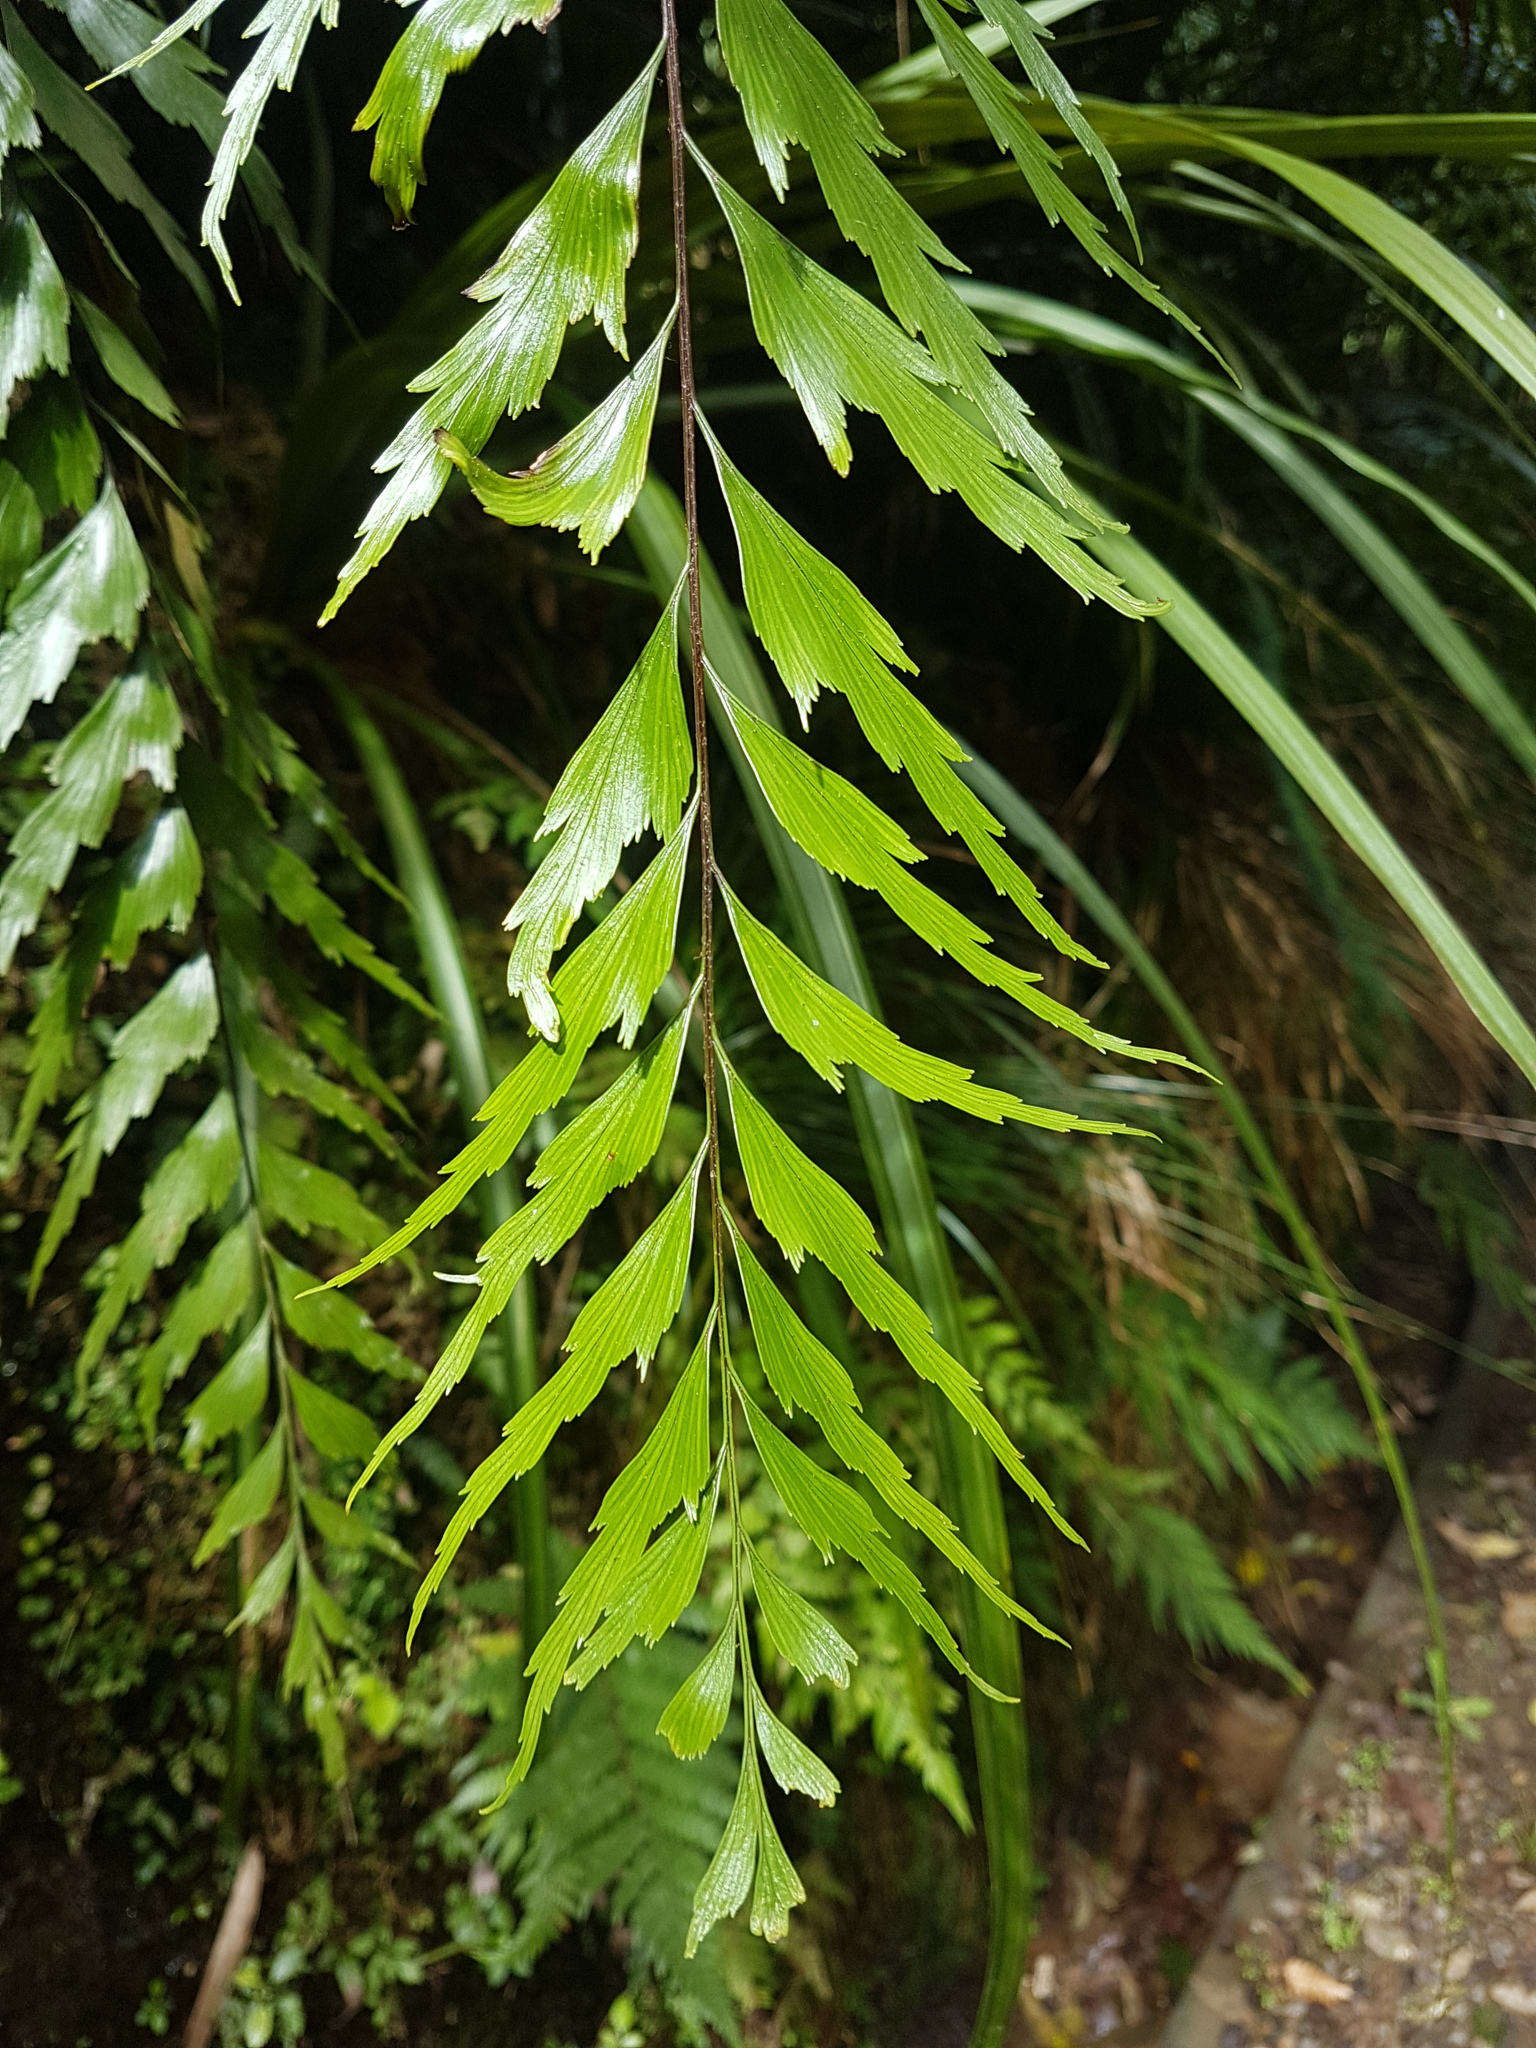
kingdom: Plantae
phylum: Tracheophyta
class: Polypodiopsida
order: Polypodiales
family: Aspleniaceae
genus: Asplenium
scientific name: Asplenium polyodon
